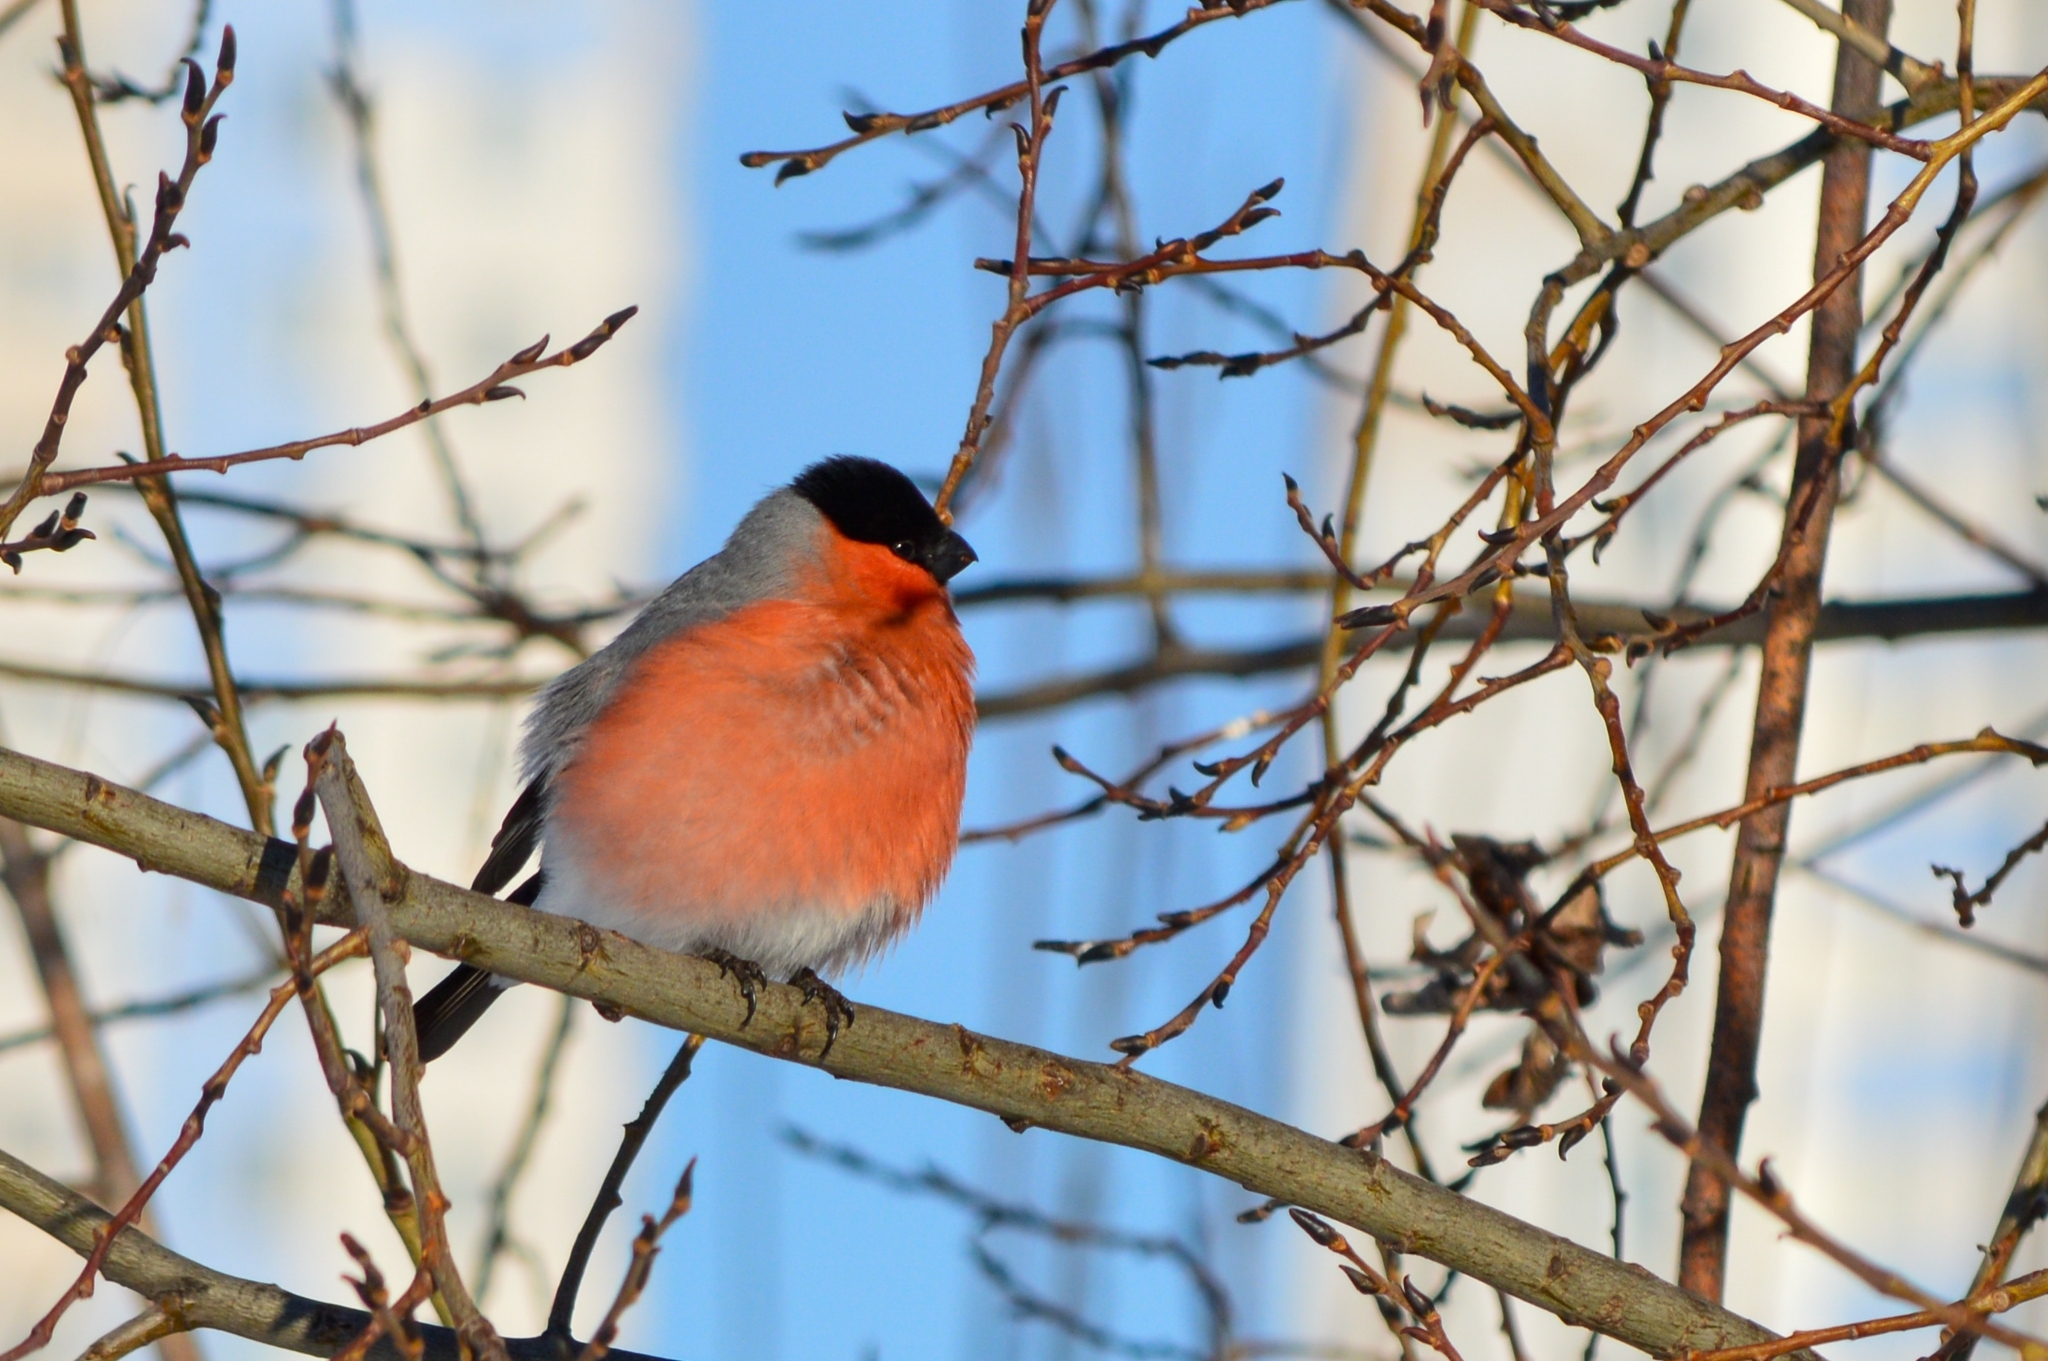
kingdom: Animalia
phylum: Chordata
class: Aves
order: Passeriformes
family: Fringillidae
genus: Pyrrhula
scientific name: Pyrrhula pyrrhula
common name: Eurasian bullfinch
